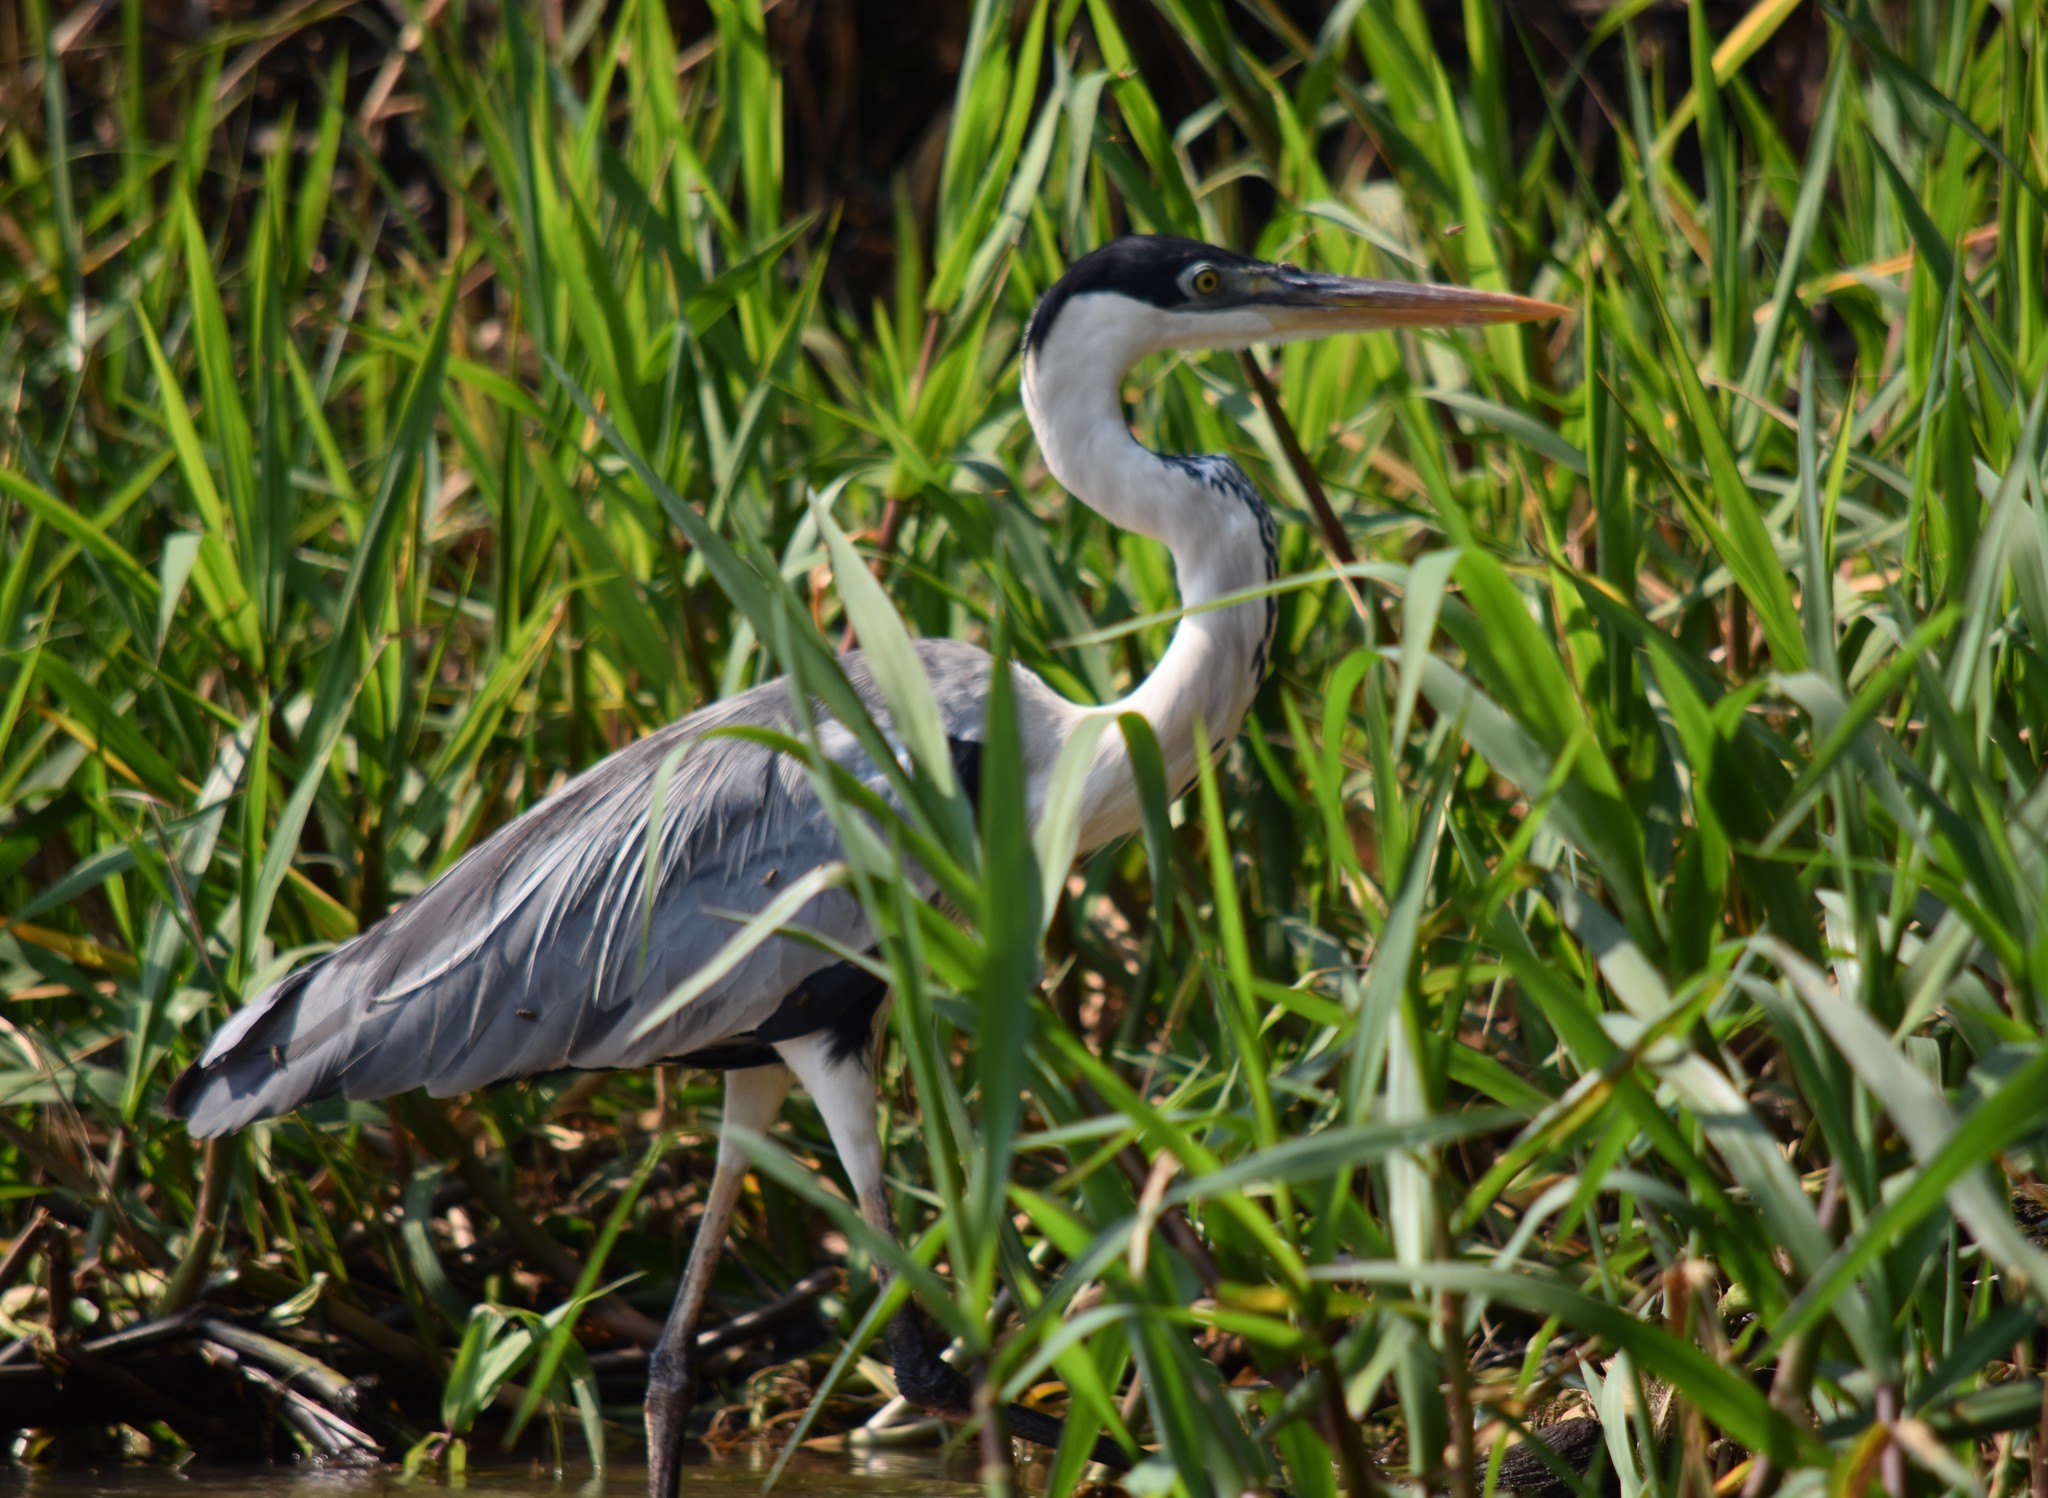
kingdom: Animalia
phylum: Chordata
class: Aves
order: Pelecaniformes
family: Ardeidae
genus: Ardea
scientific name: Ardea cocoi
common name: Cocoi heron
